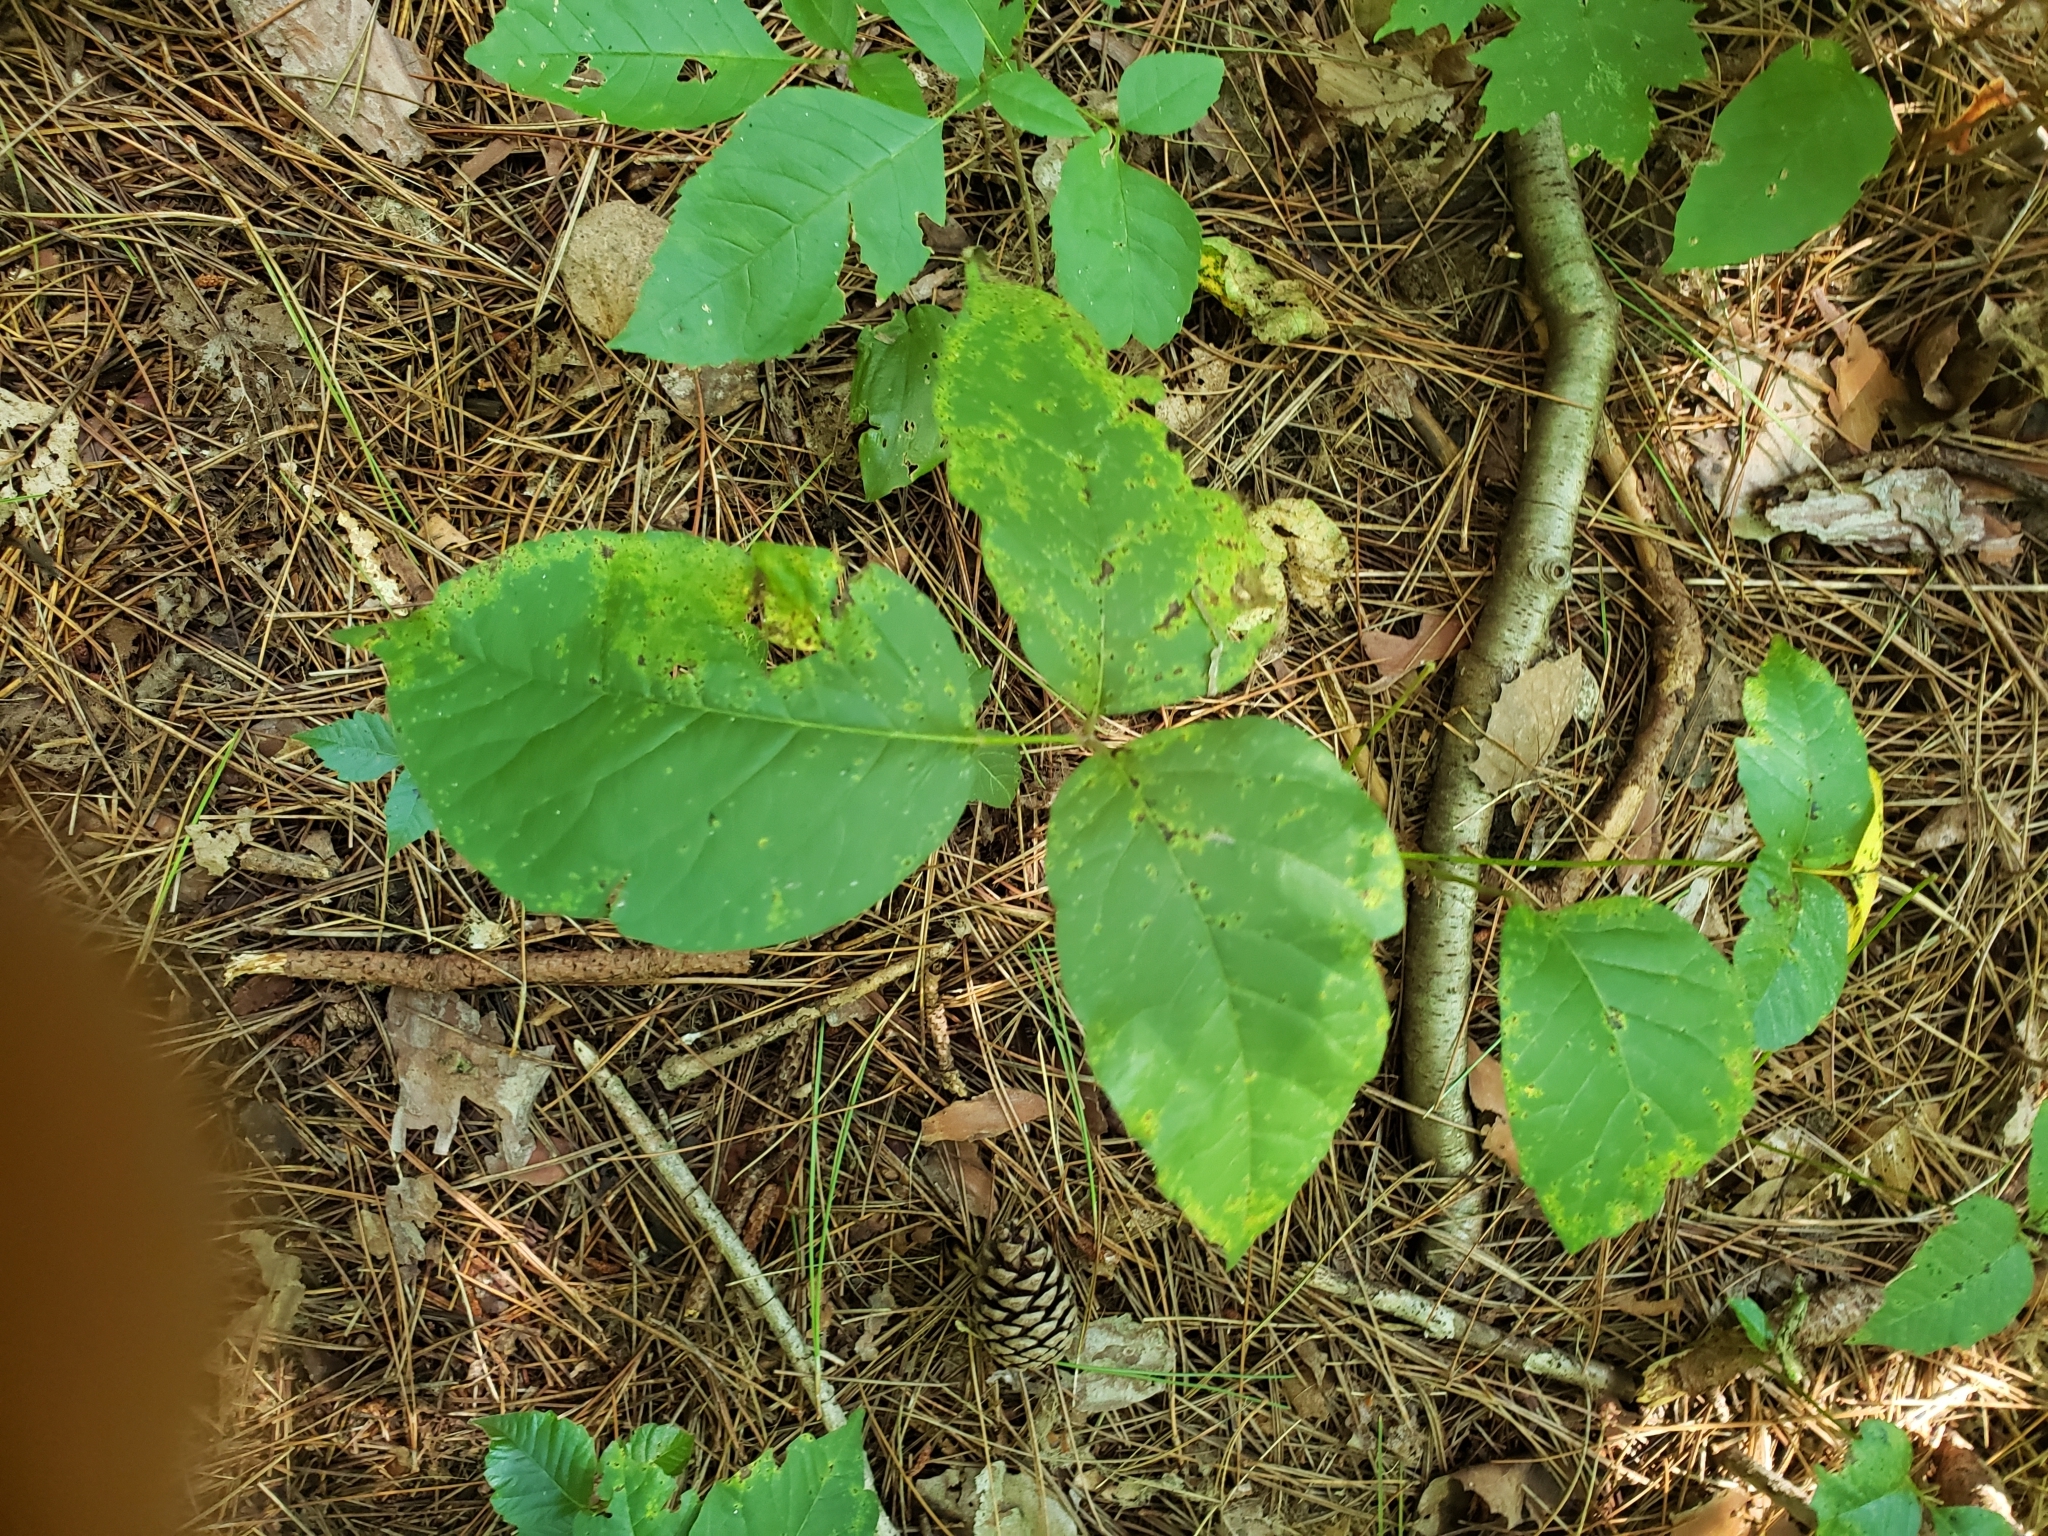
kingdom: Plantae
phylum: Tracheophyta
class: Magnoliopsida
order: Sapindales
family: Anacardiaceae
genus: Toxicodendron
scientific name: Toxicodendron rydbergii
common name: Rydberg's poison-ivy
